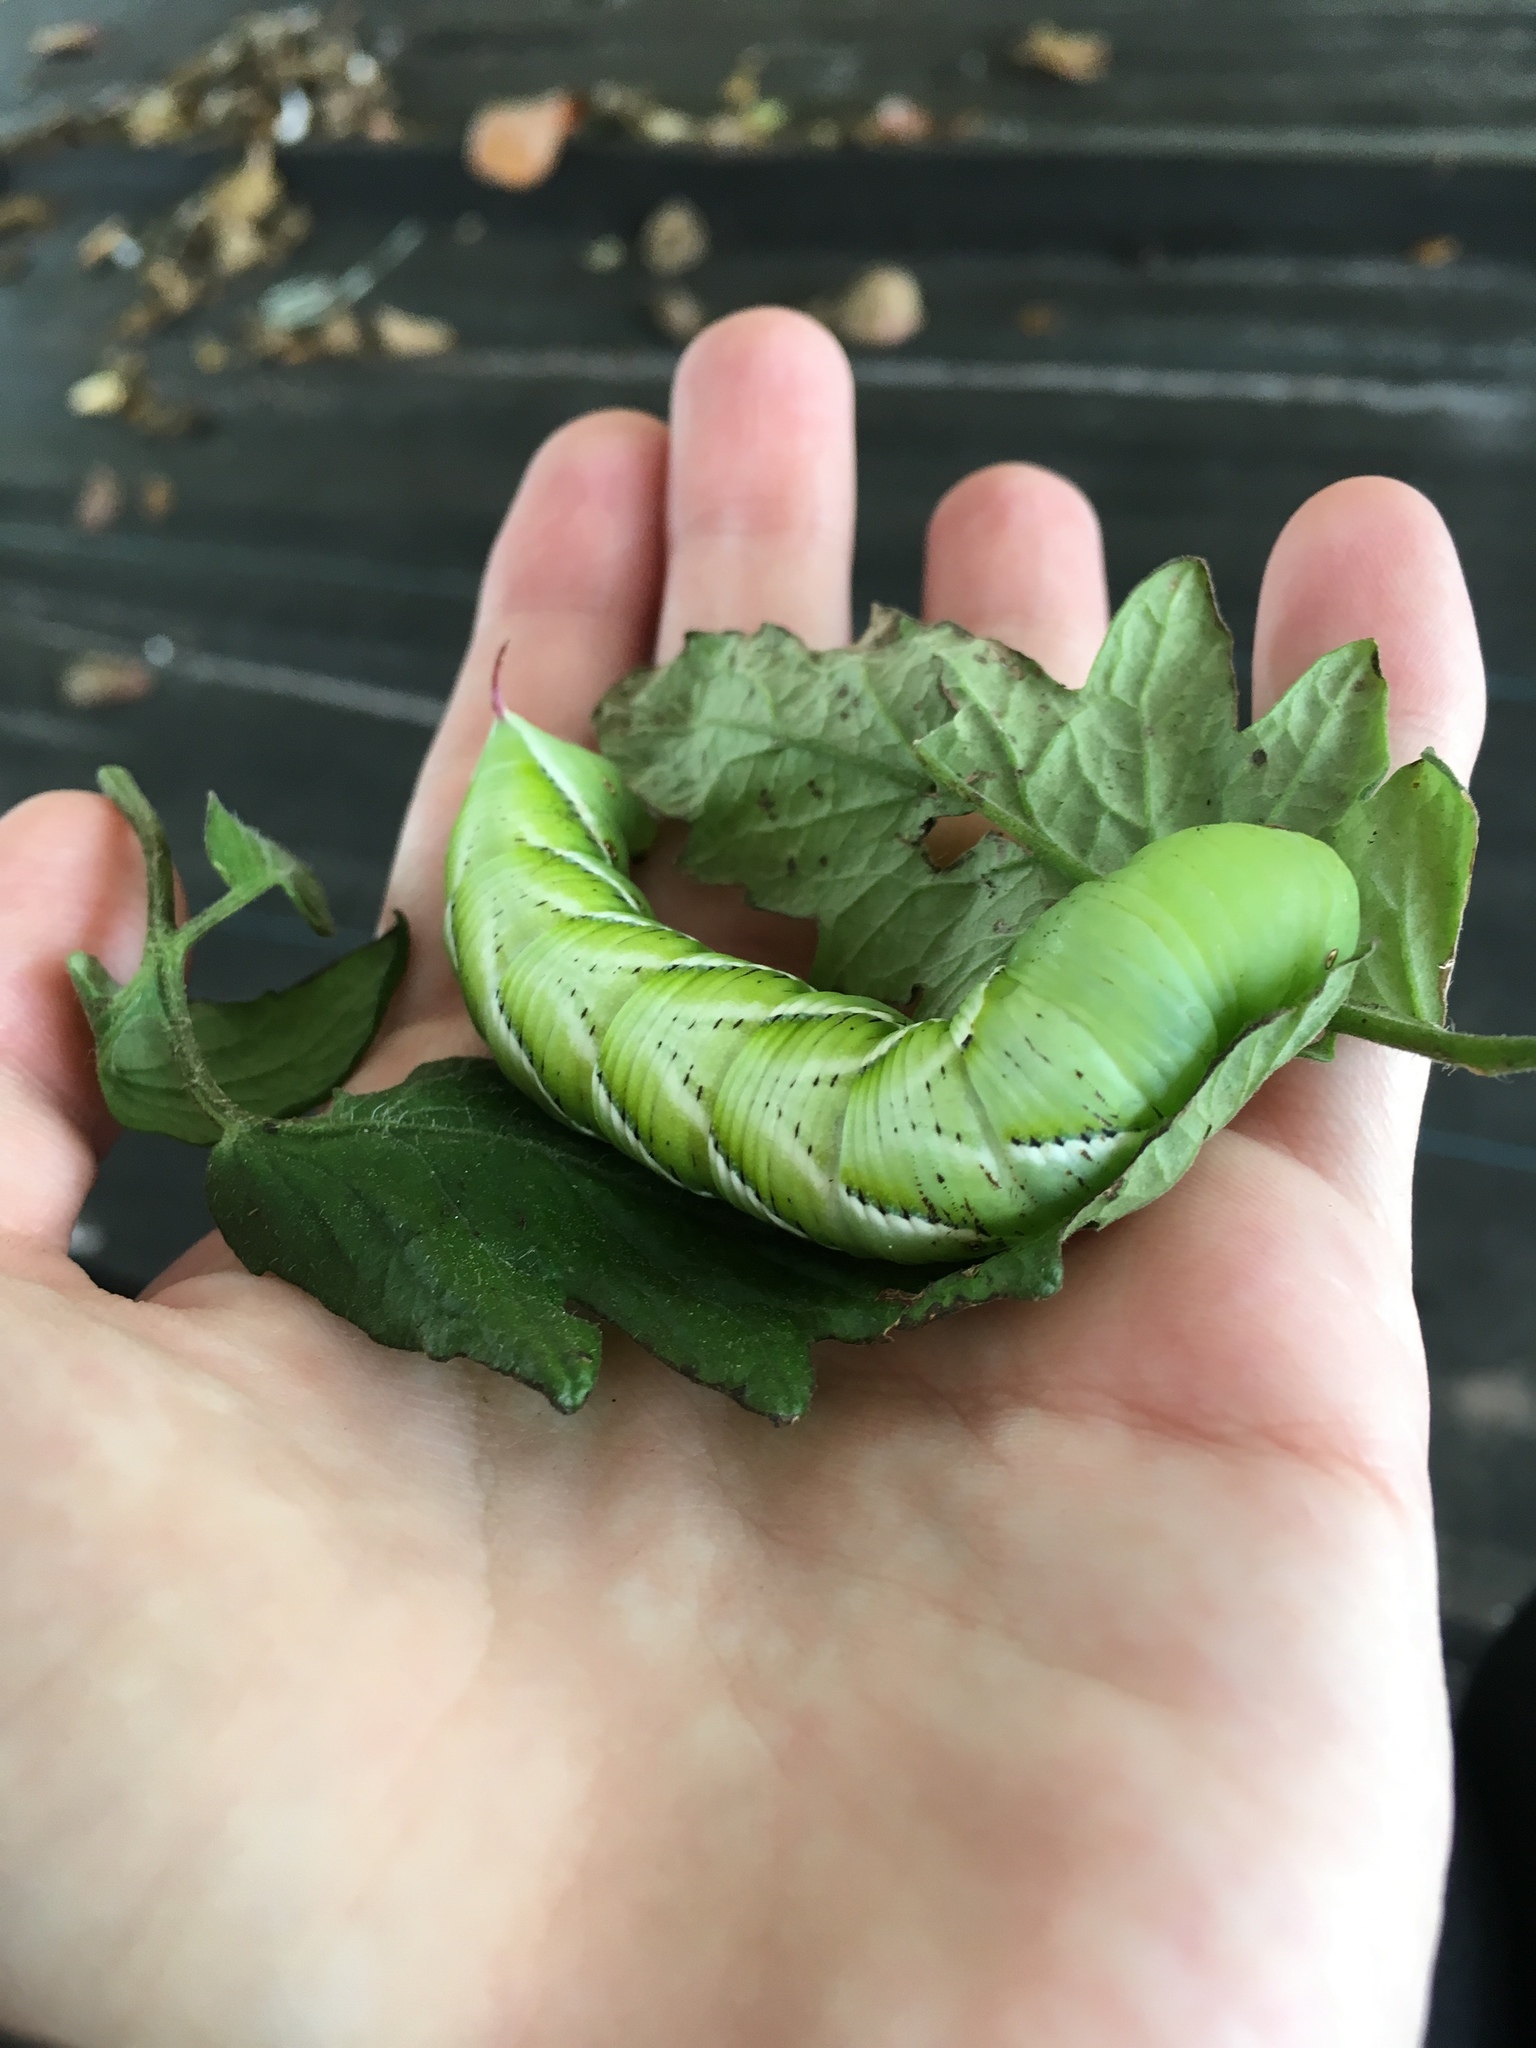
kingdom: Animalia
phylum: Arthropoda
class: Insecta
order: Lepidoptera
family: Sphingidae
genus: Manduca
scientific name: Manduca sexta
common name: Carolina sphinx
